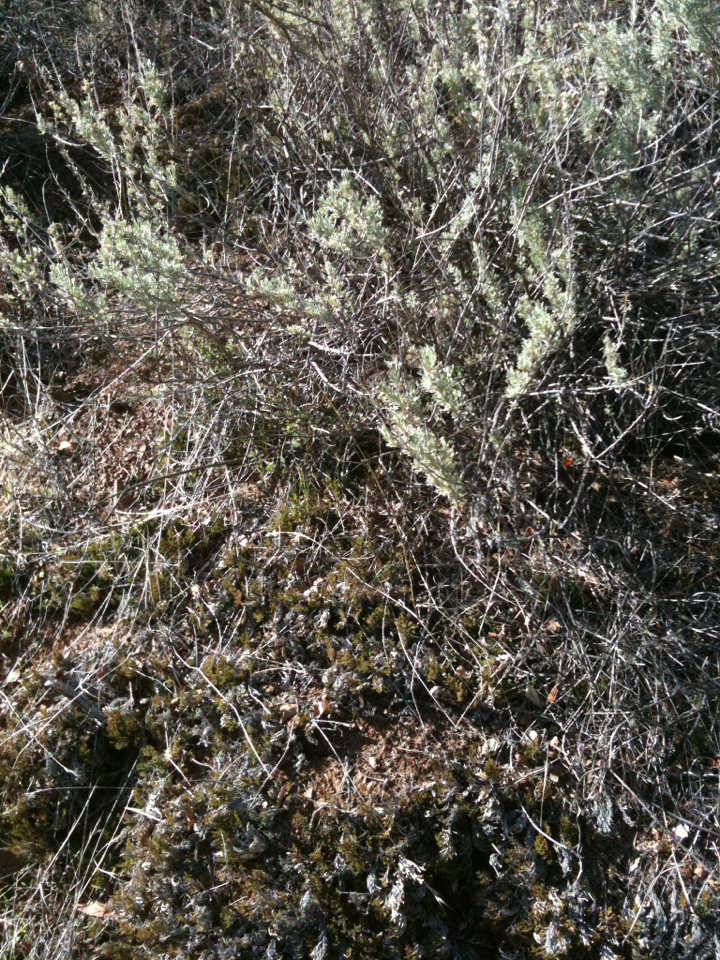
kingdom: Plantae
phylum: Tracheophyta
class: Lycopodiopsida
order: Selaginellales
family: Selaginellaceae
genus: Selaginella
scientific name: Selaginella bigelovii
